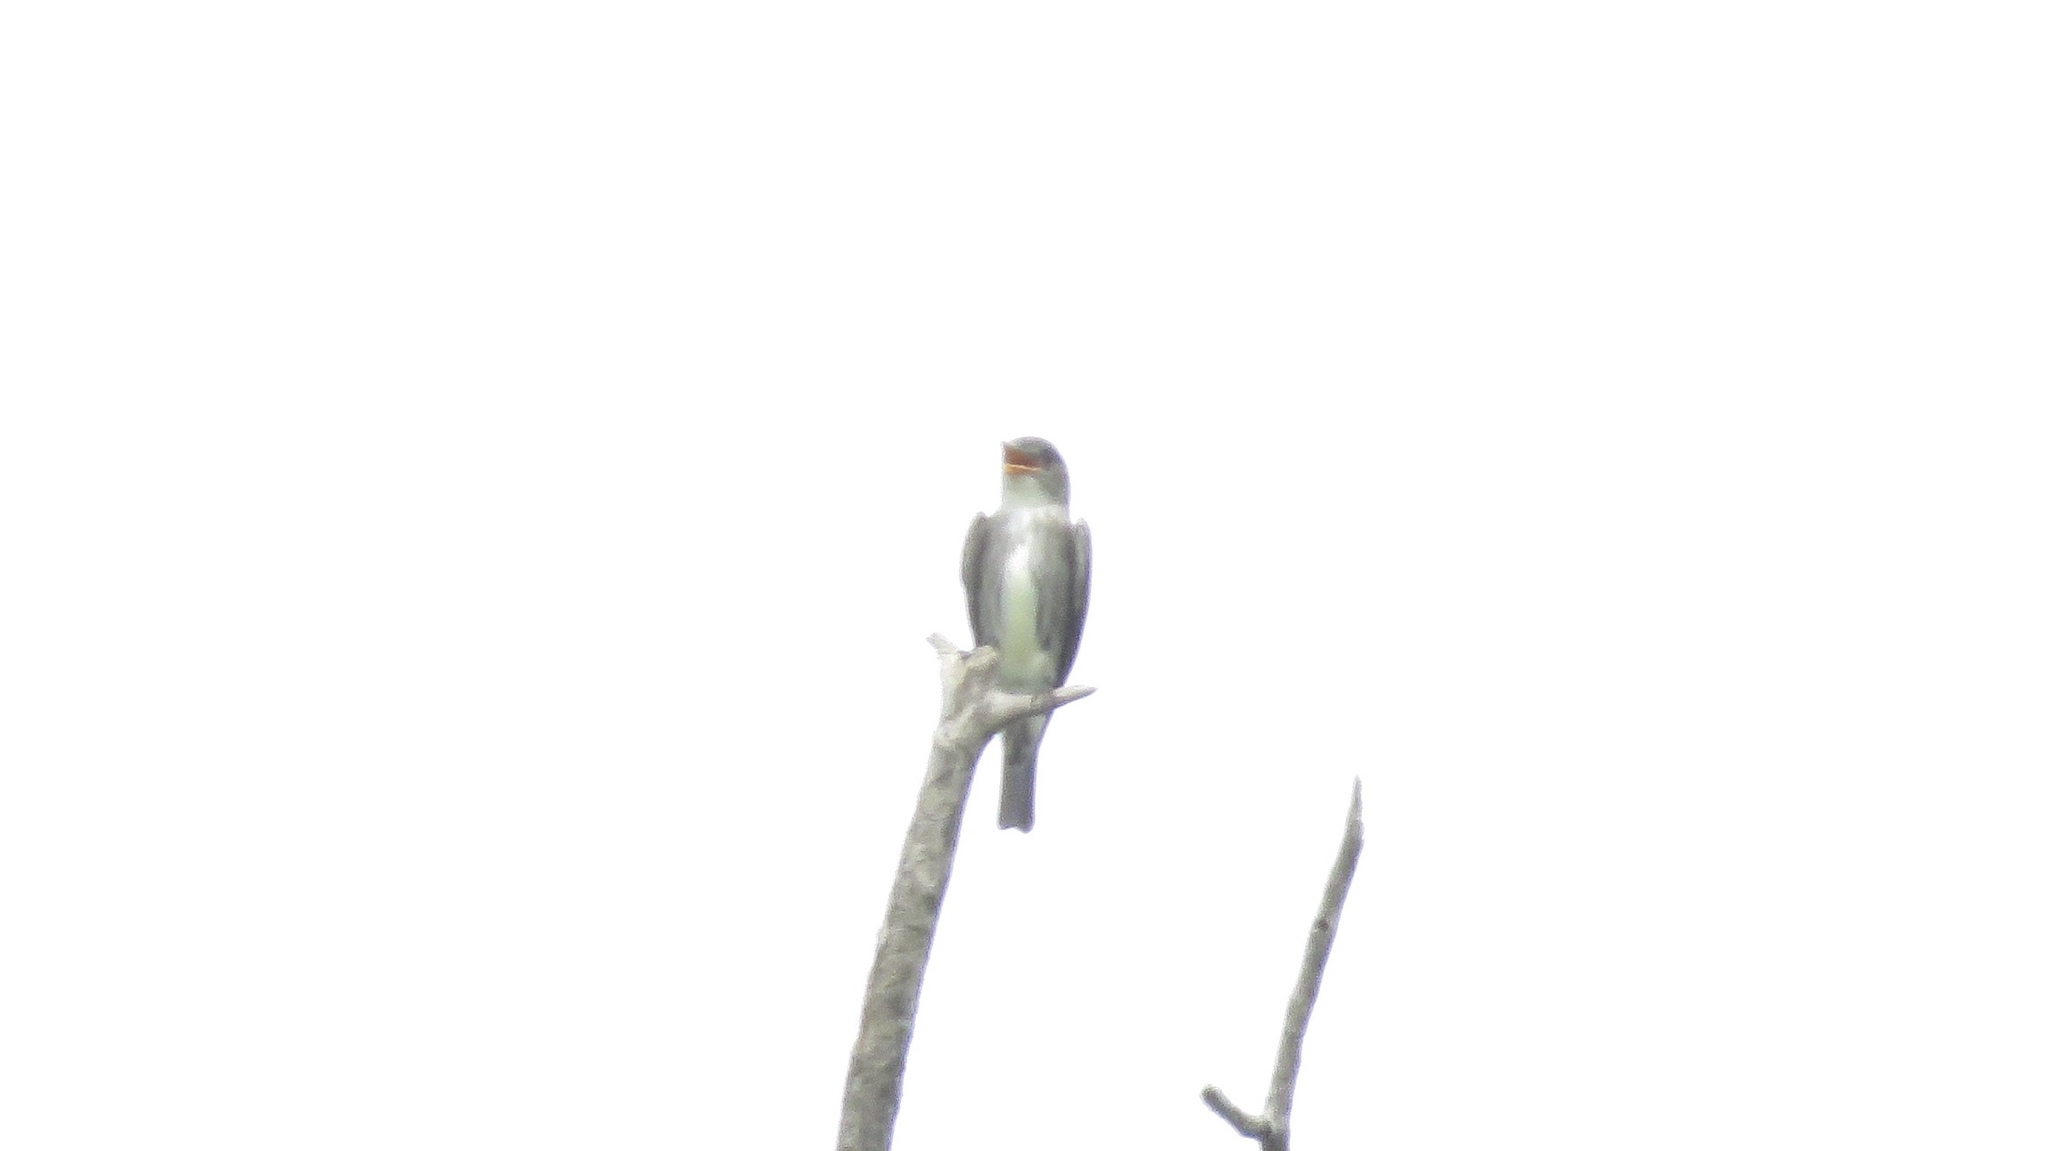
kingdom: Animalia
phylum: Chordata
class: Aves
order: Passeriformes
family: Tyrannidae
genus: Contopus
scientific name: Contopus cooperi
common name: Olive-sided flycatcher
